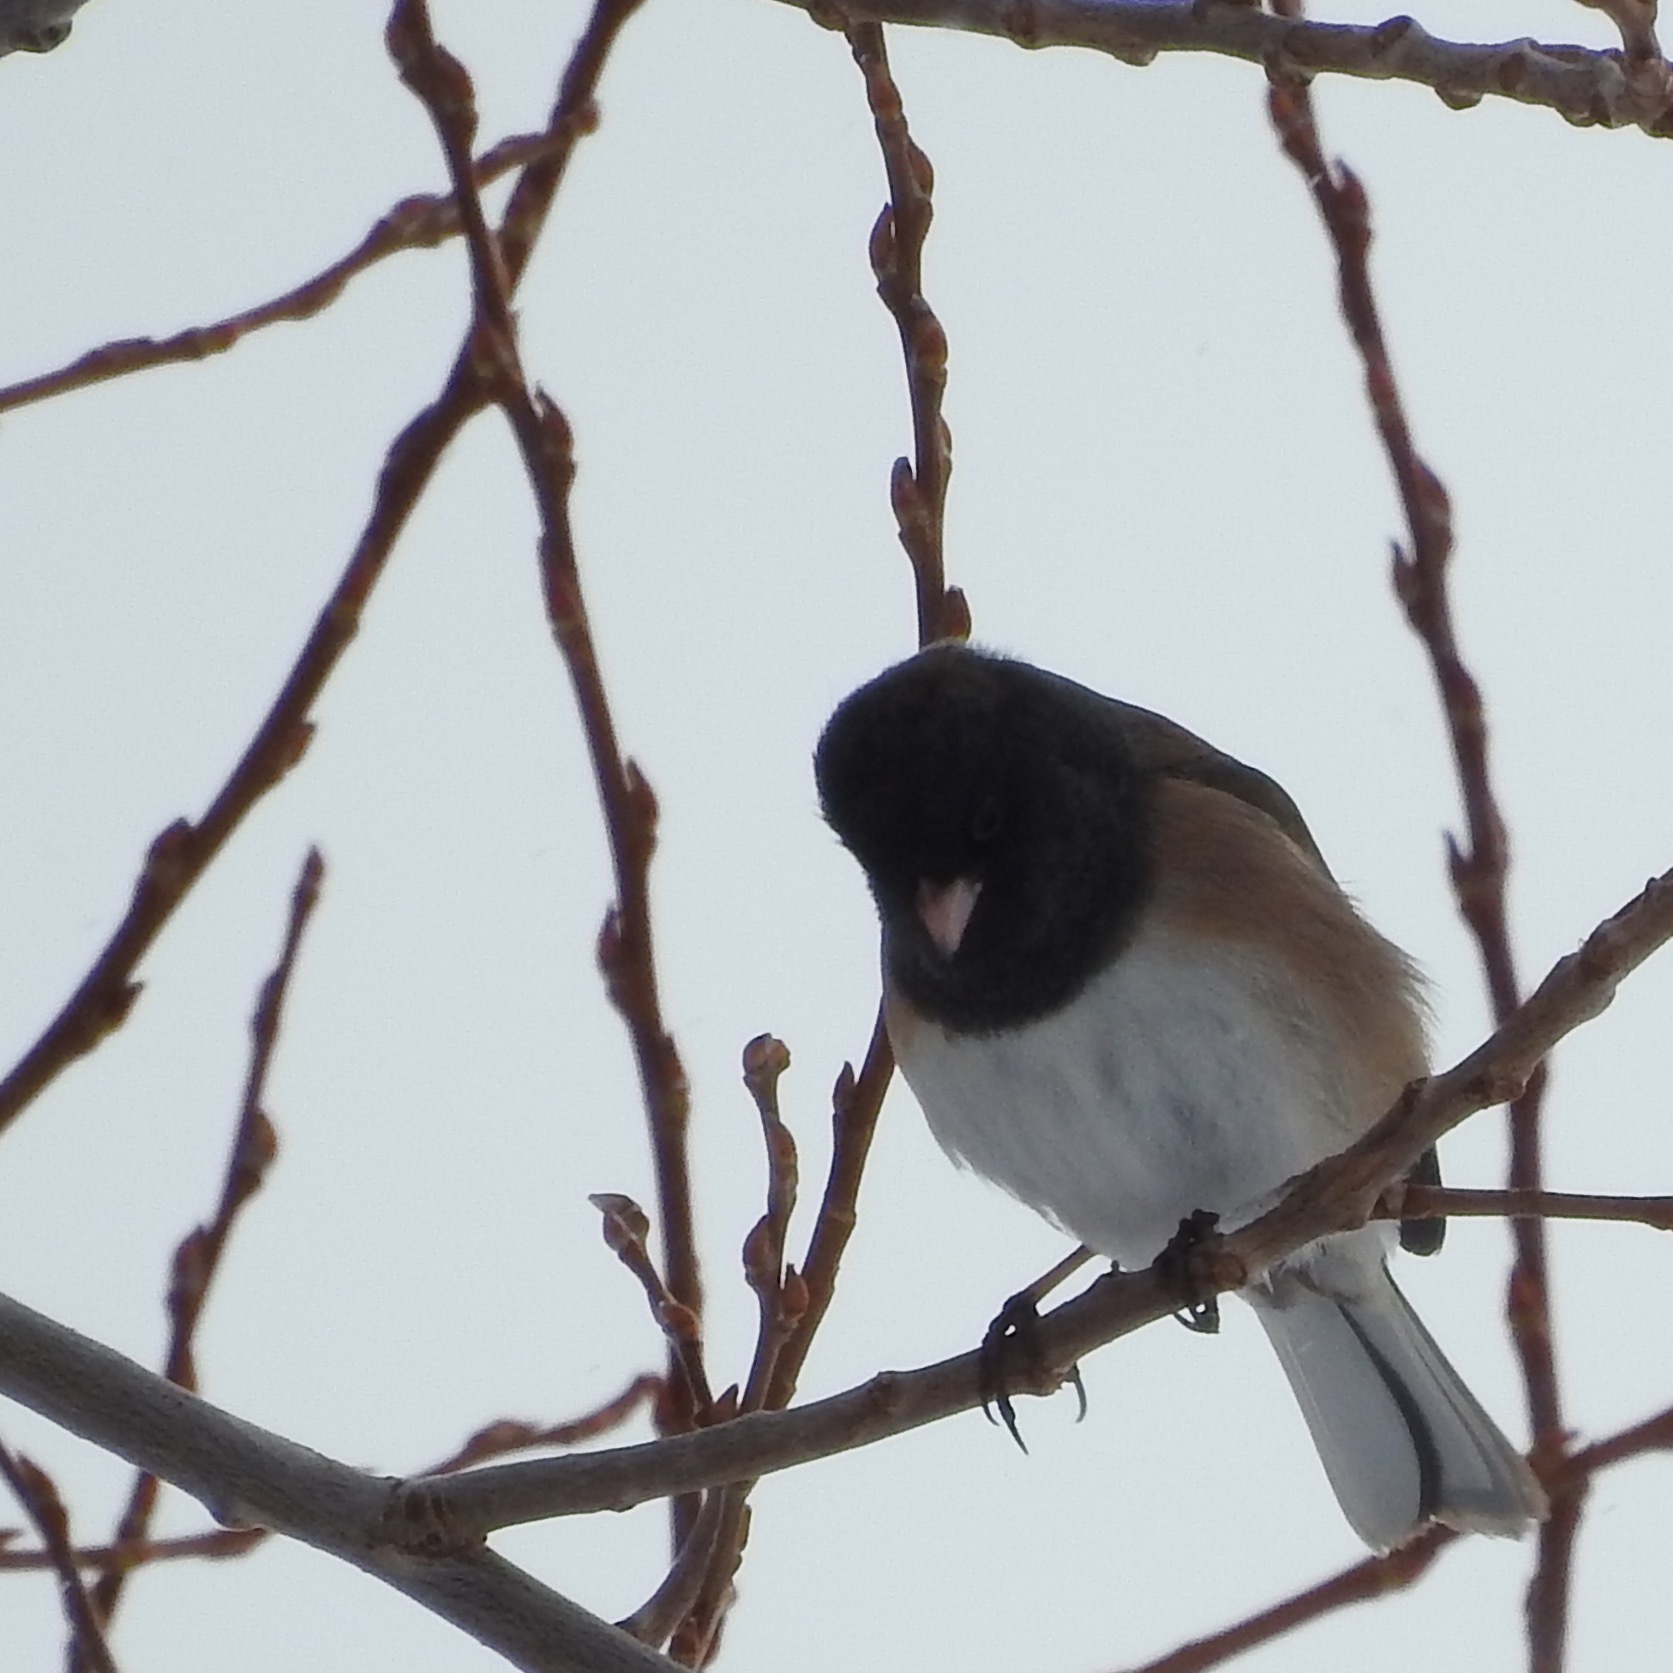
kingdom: Animalia
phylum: Chordata
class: Aves
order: Passeriformes
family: Passerellidae
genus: Junco
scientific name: Junco hyemalis
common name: Dark-eyed junco
